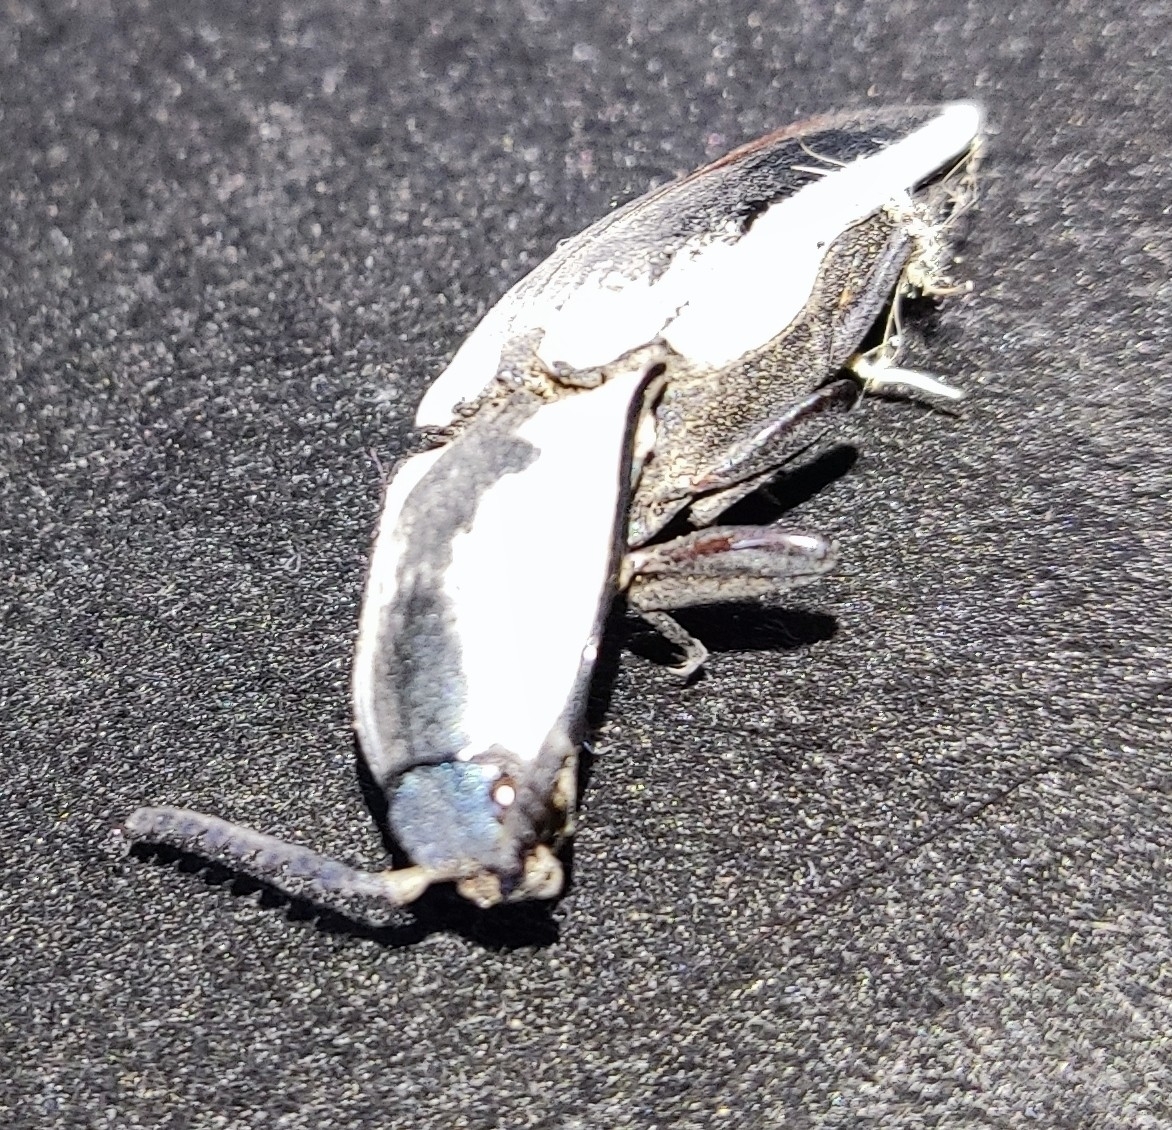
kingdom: Animalia
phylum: Arthropoda
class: Insecta
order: Coleoptera
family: Elateridae
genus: Chalcolepidius
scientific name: Chalcolepidius webbi
